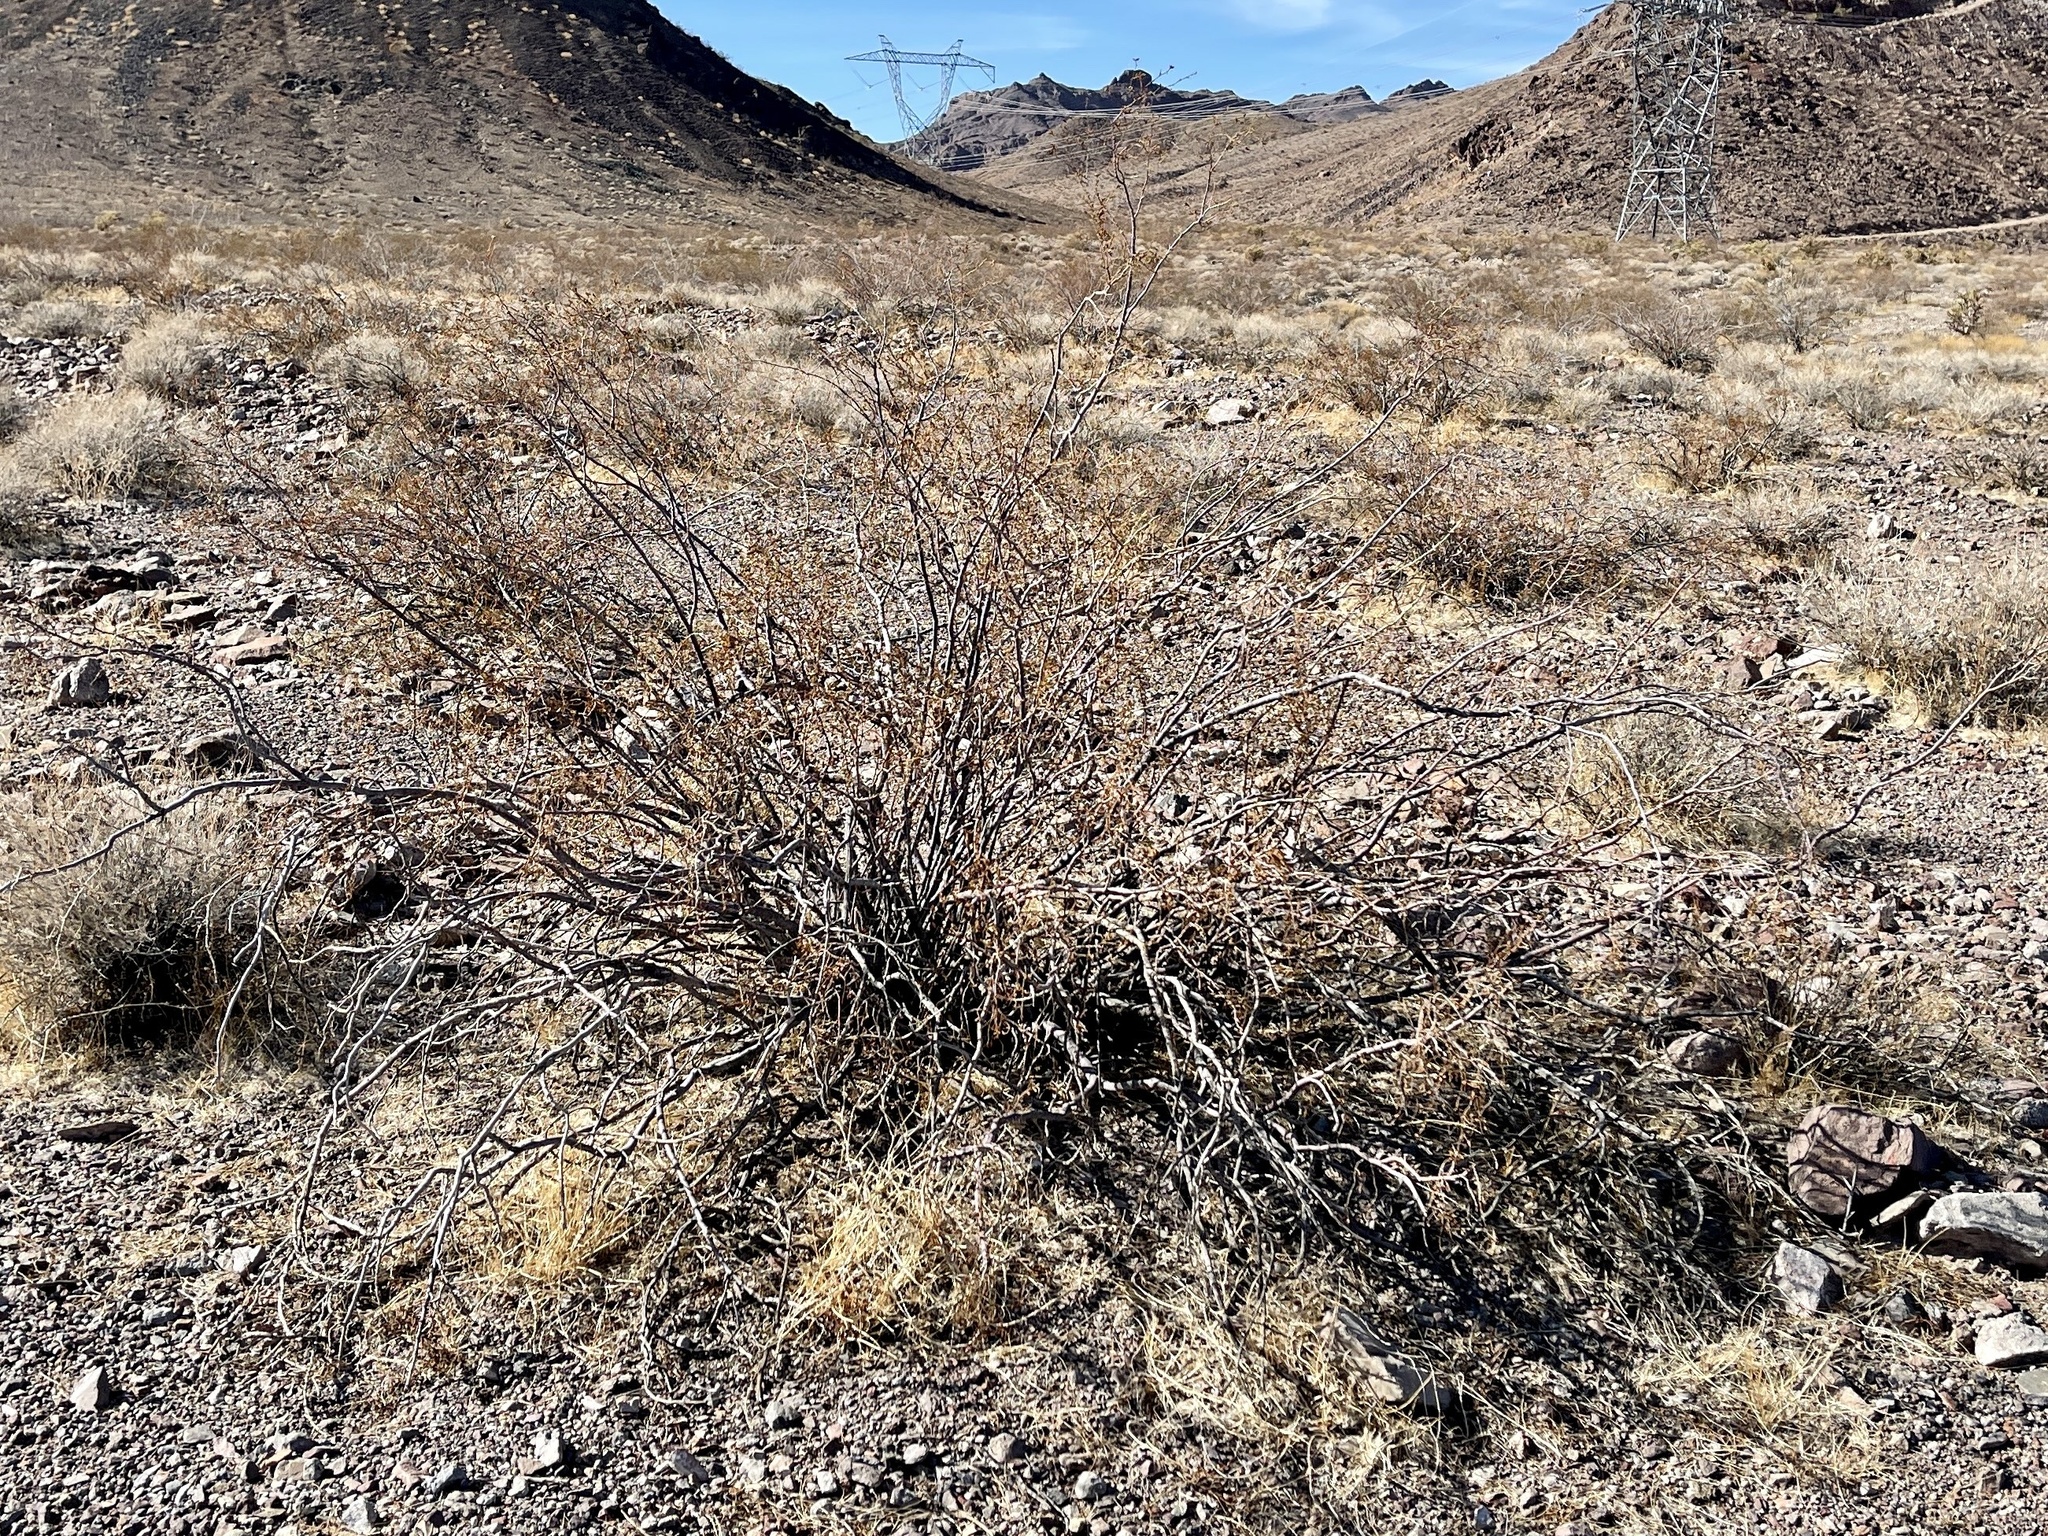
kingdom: Plantae
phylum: Tracheophyta
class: Magnoliopsida
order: Zygophyllales
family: Zygophyllaceae
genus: Larrea
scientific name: Larrea tridentata
